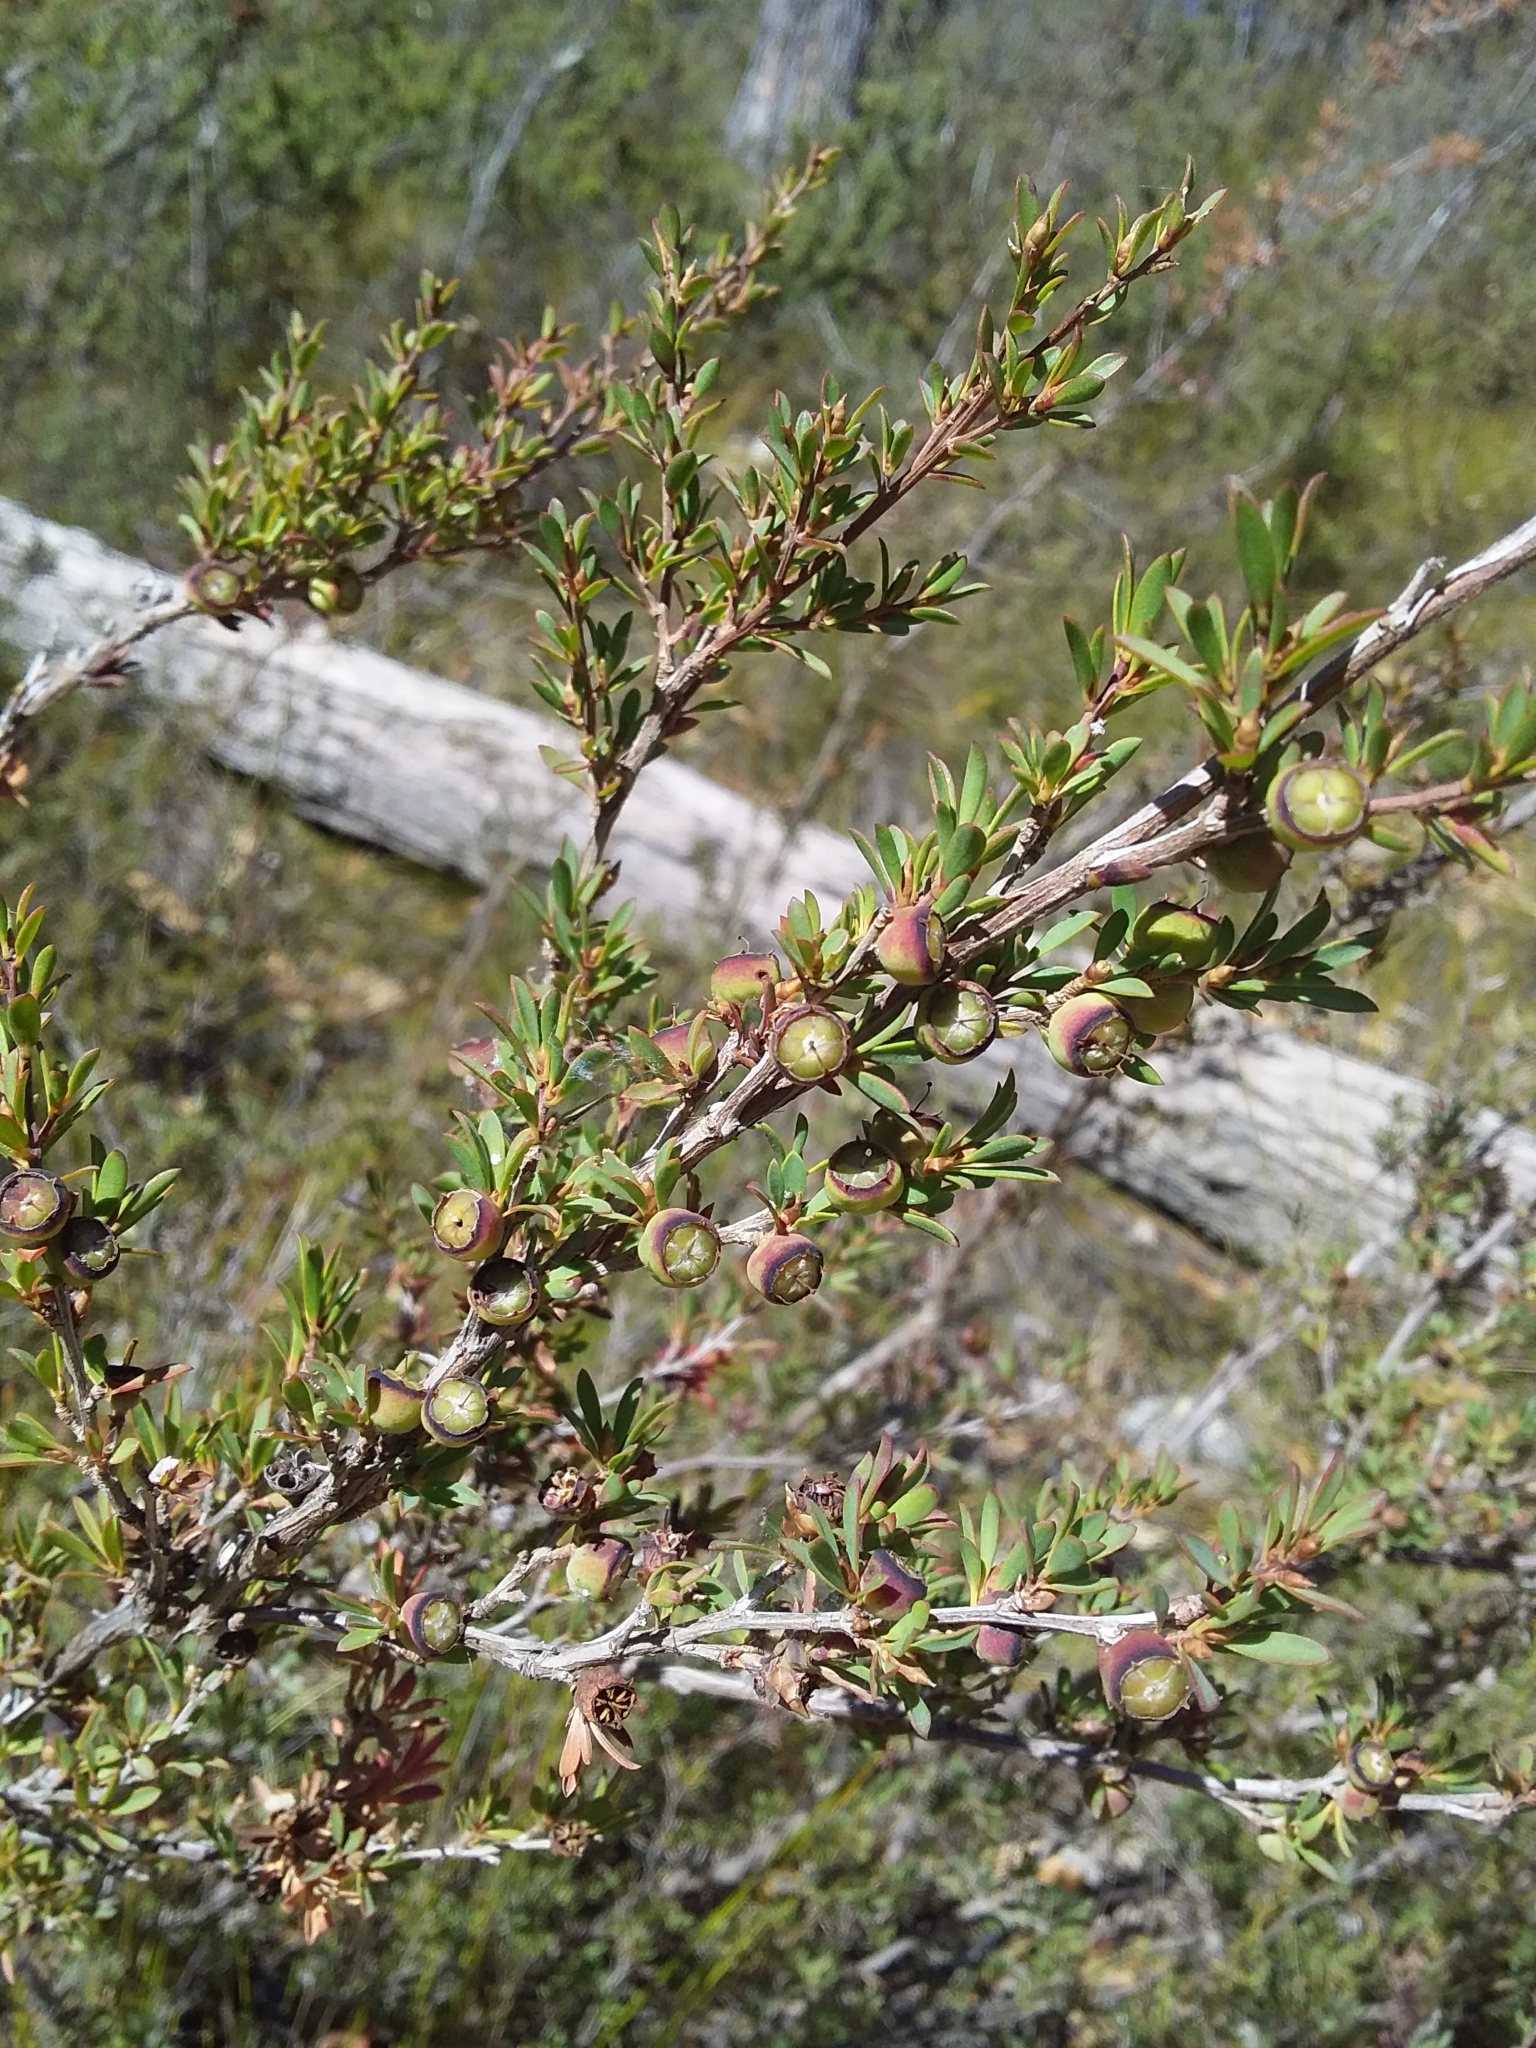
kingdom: Plantae
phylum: Tracheophyta
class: Magnoliopsida
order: Myrtales
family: Myrtaceae
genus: Leptospermum
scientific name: Leptospermum myrsinoides
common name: Heath teatree
